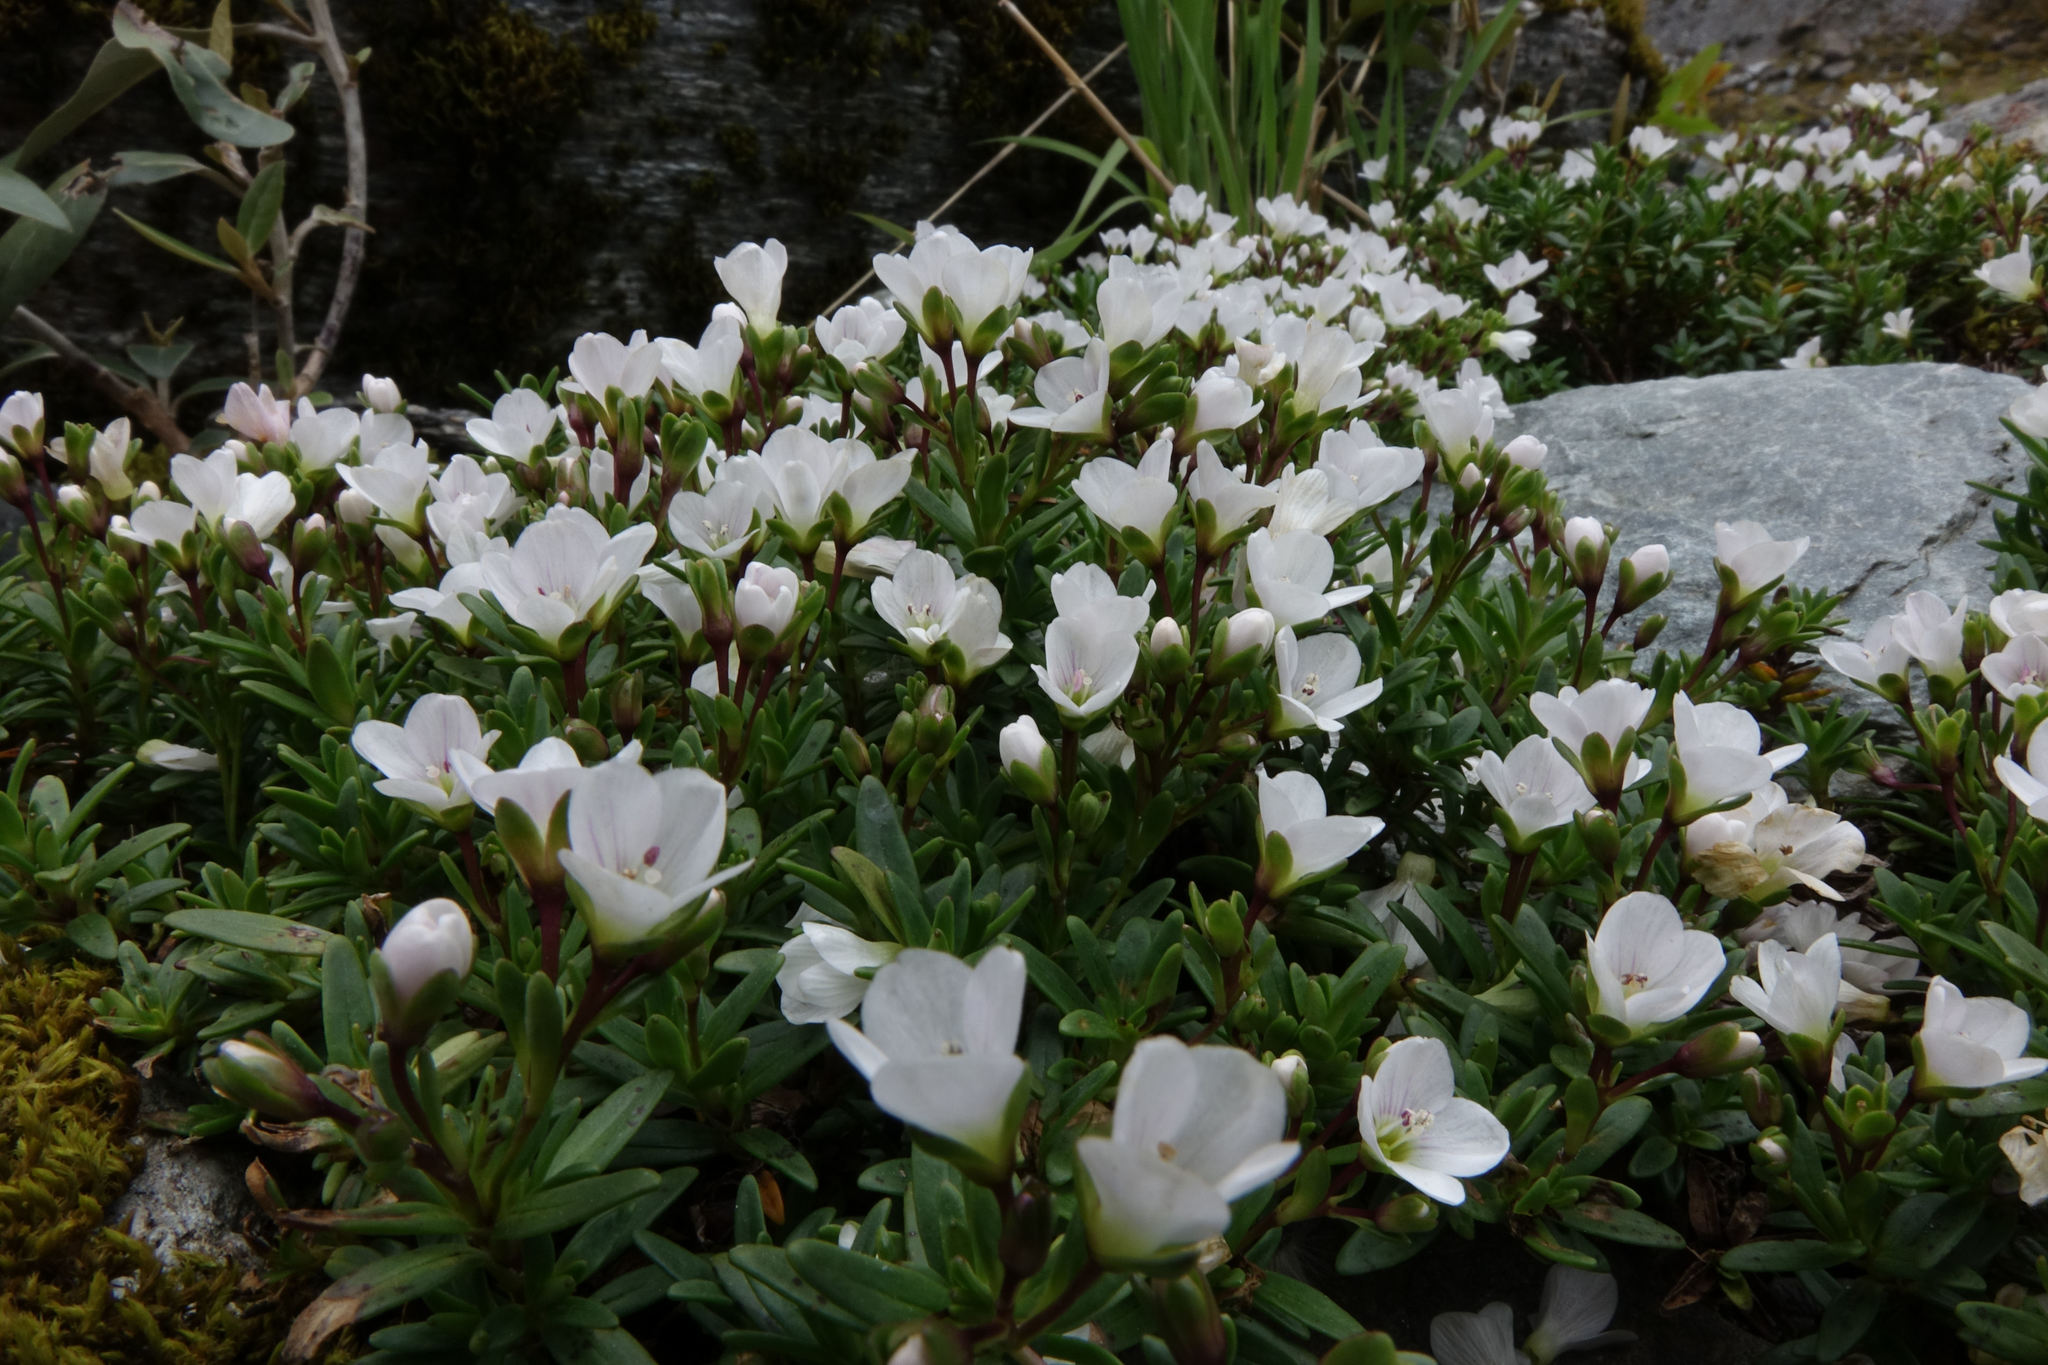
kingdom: Plantae
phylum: Tracheophyta
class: Magnoliopsida
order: Lamiales
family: Plantaginaceae
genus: Veronica
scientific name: Veronica colostylis
